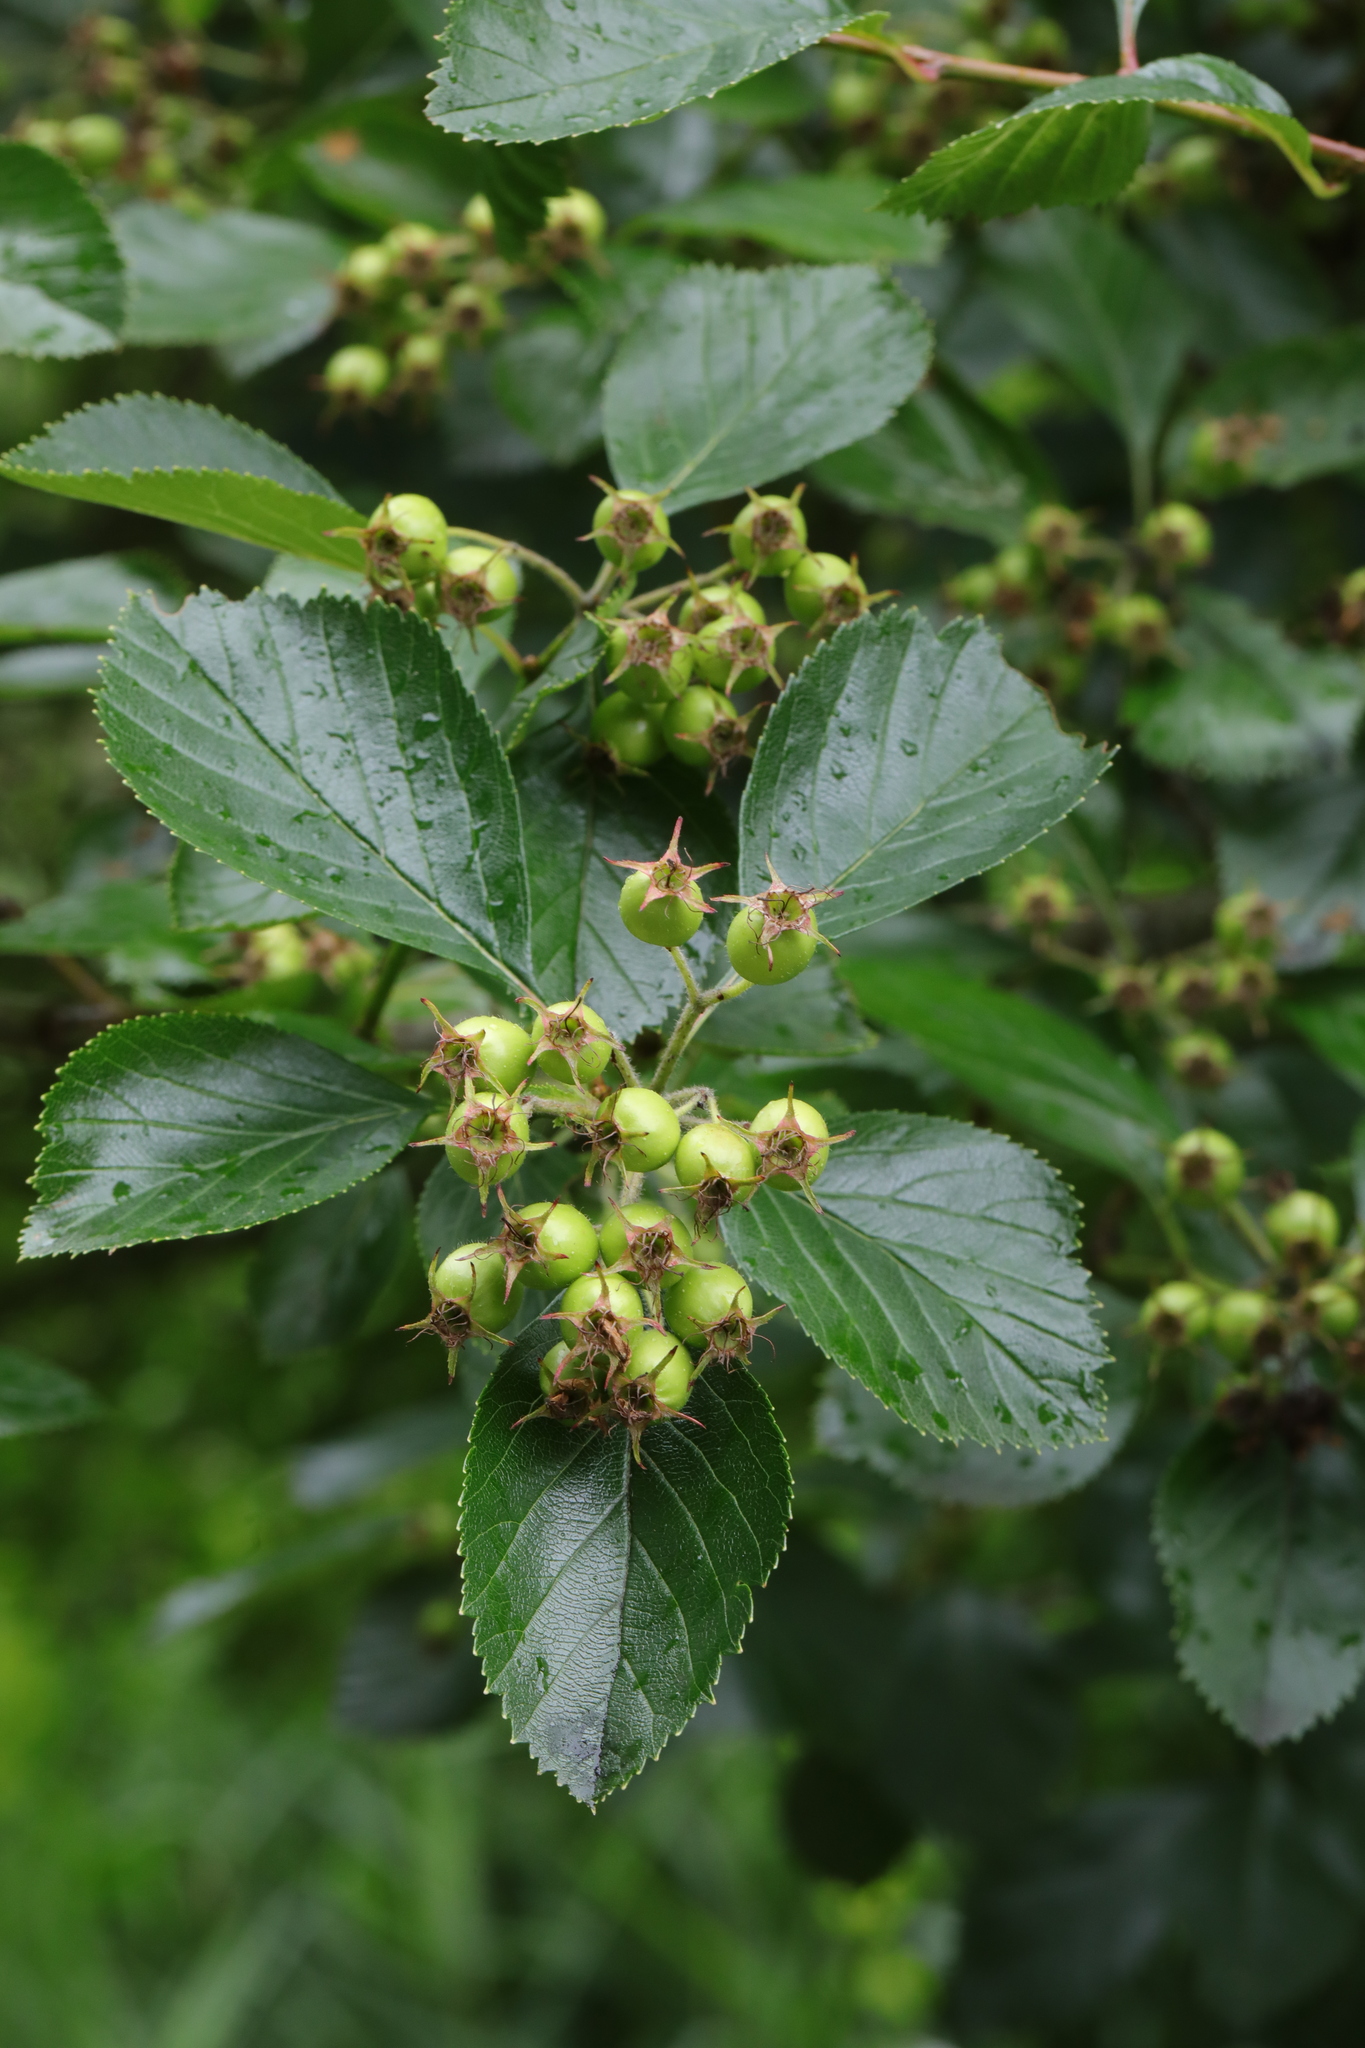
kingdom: Plantae
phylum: Tracheophyta
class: Magnoliopsida
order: Rosales
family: Rosaceae
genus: Crataegus
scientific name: Crataegus persimilis
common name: Broad-leaved cockspurthorn
